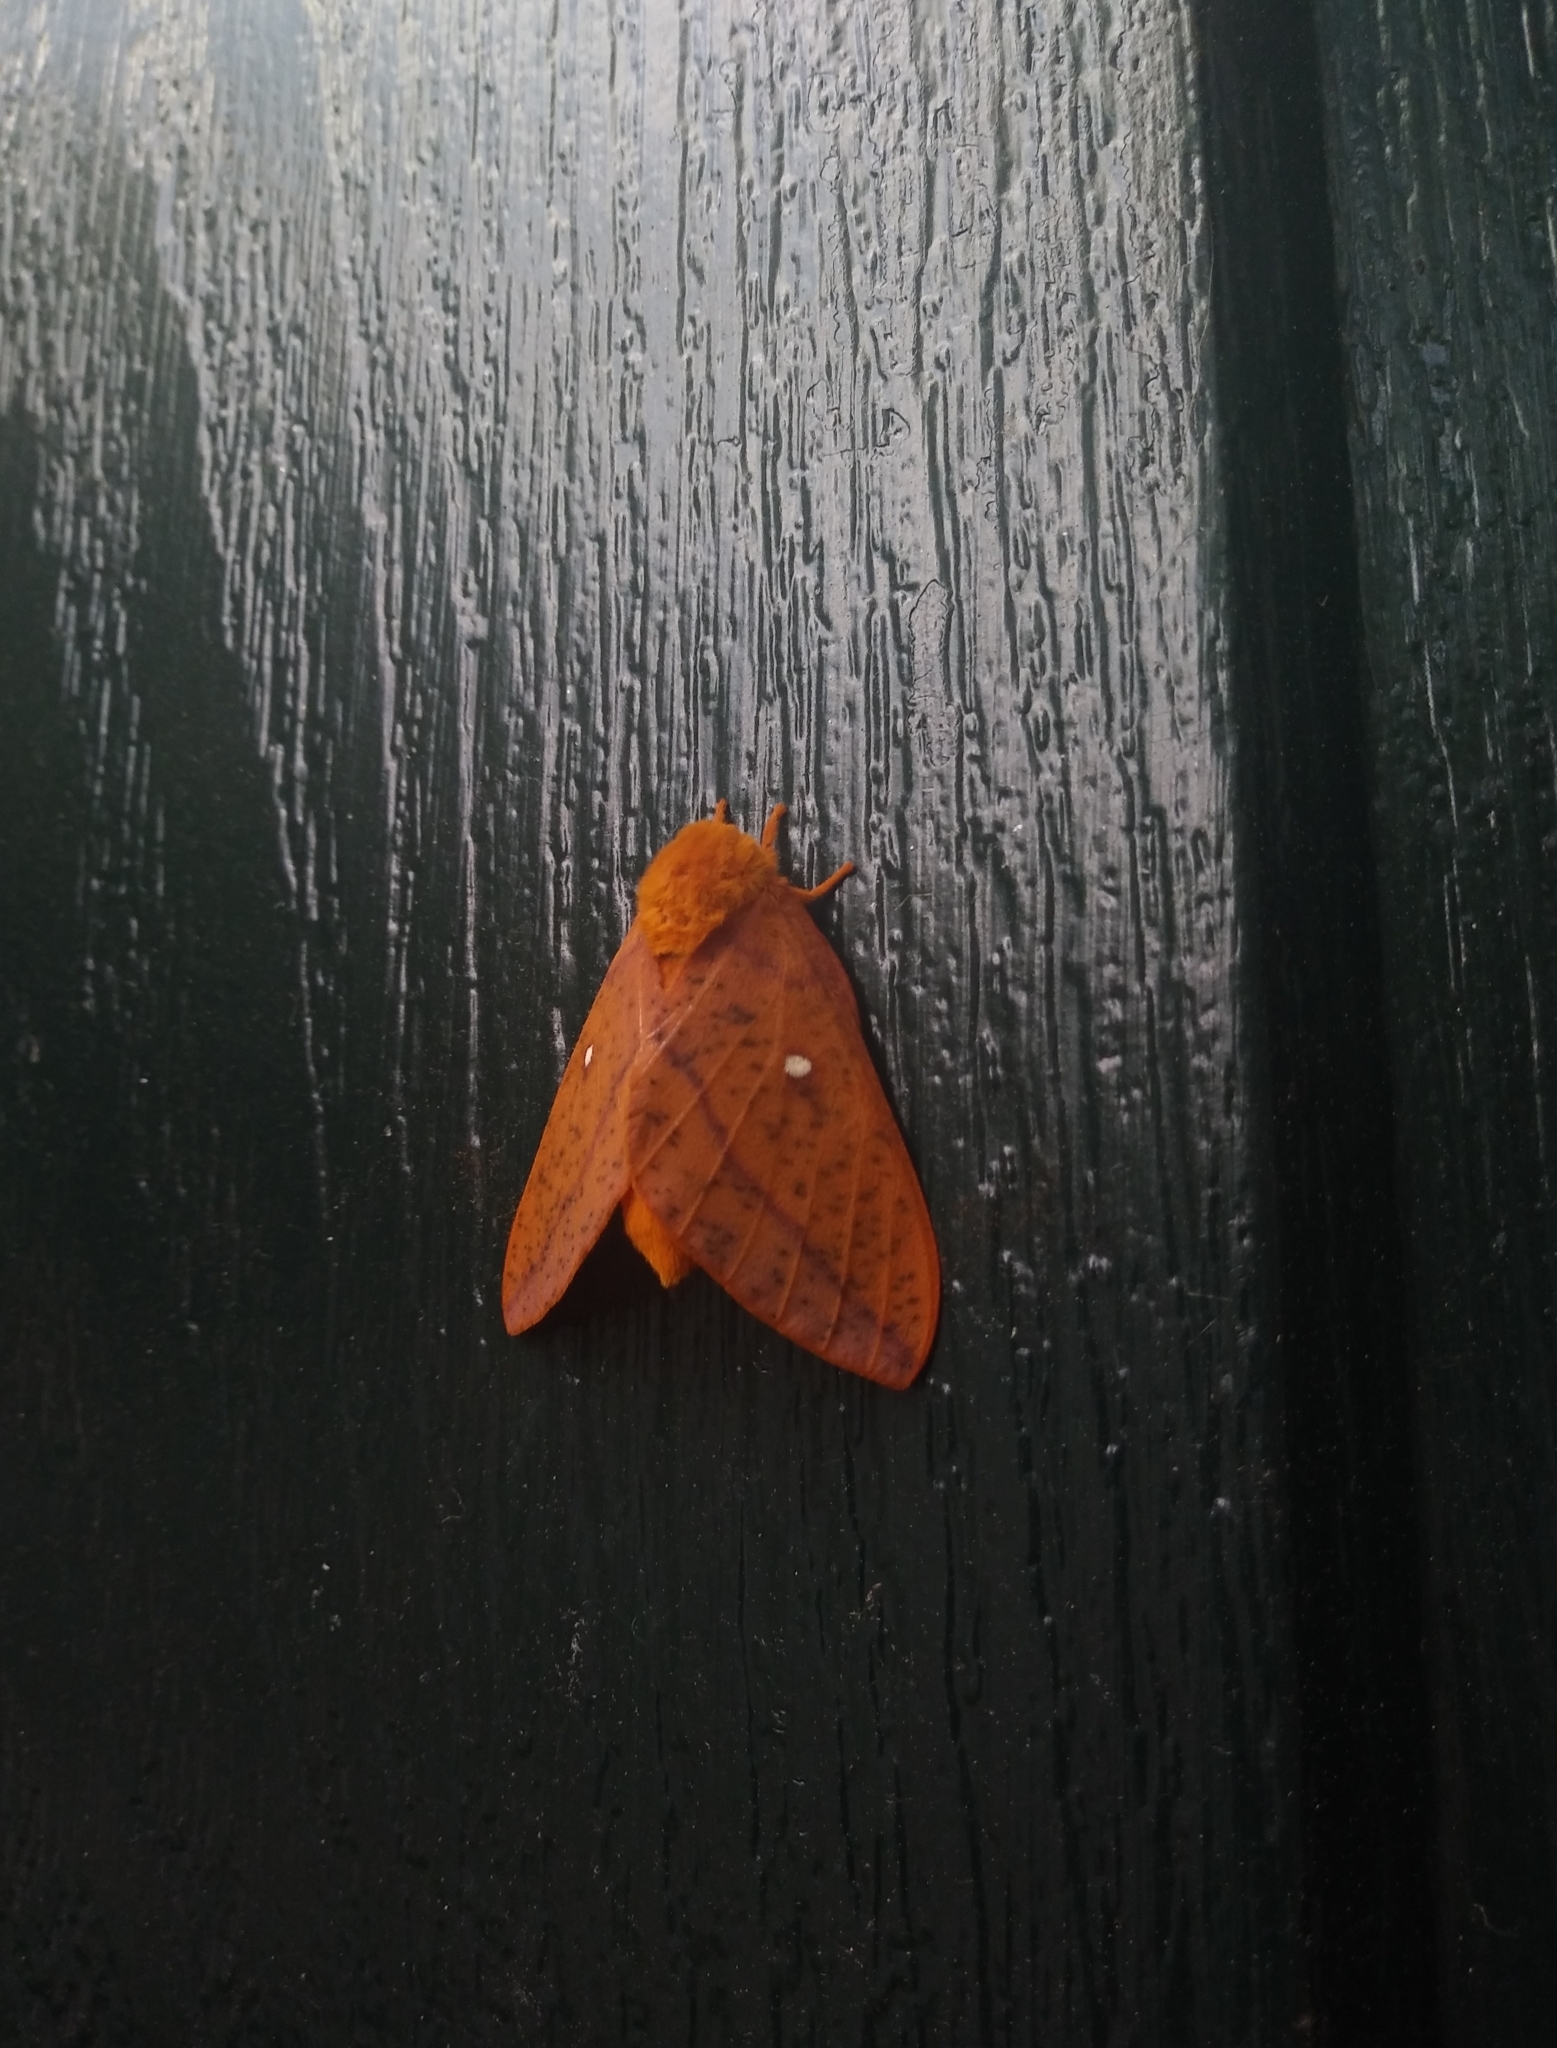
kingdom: Animalia
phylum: Arthropoda
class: Insecta
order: Lepidoptera
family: Saturniidae
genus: Anisota
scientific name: Anisota senatoria
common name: Orange-striped oakworm moth
